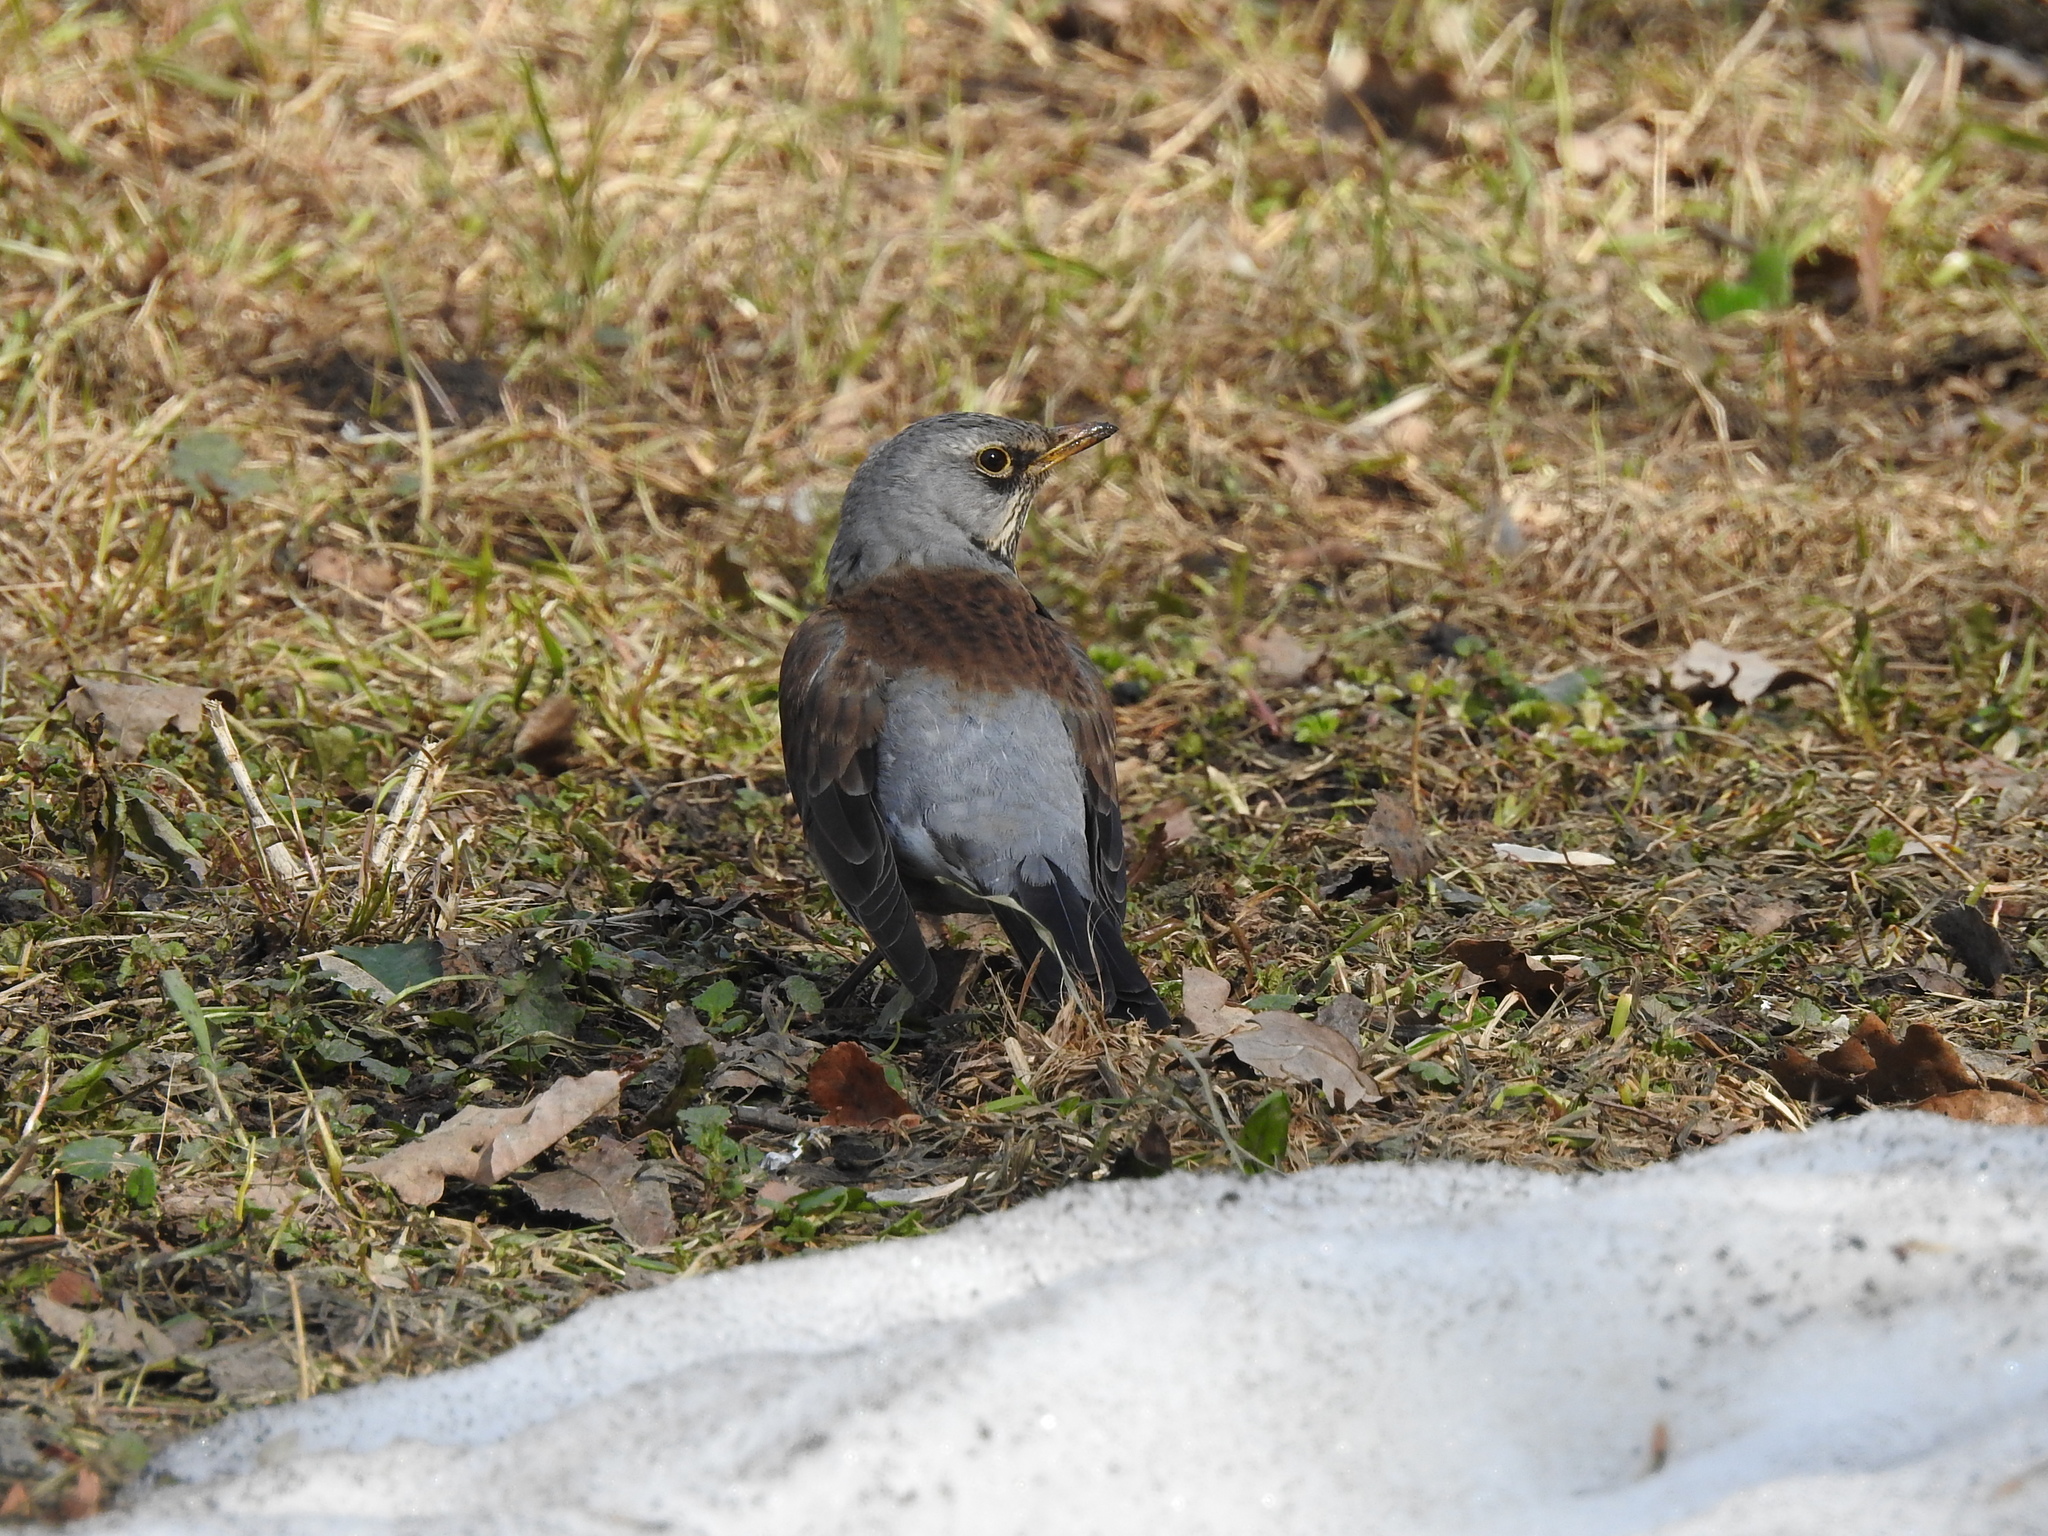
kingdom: Animalia
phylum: Chordata
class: Aves
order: Passeriformes
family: Turdidae
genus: Turdus
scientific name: Turdus pilaris
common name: Fieldfare
